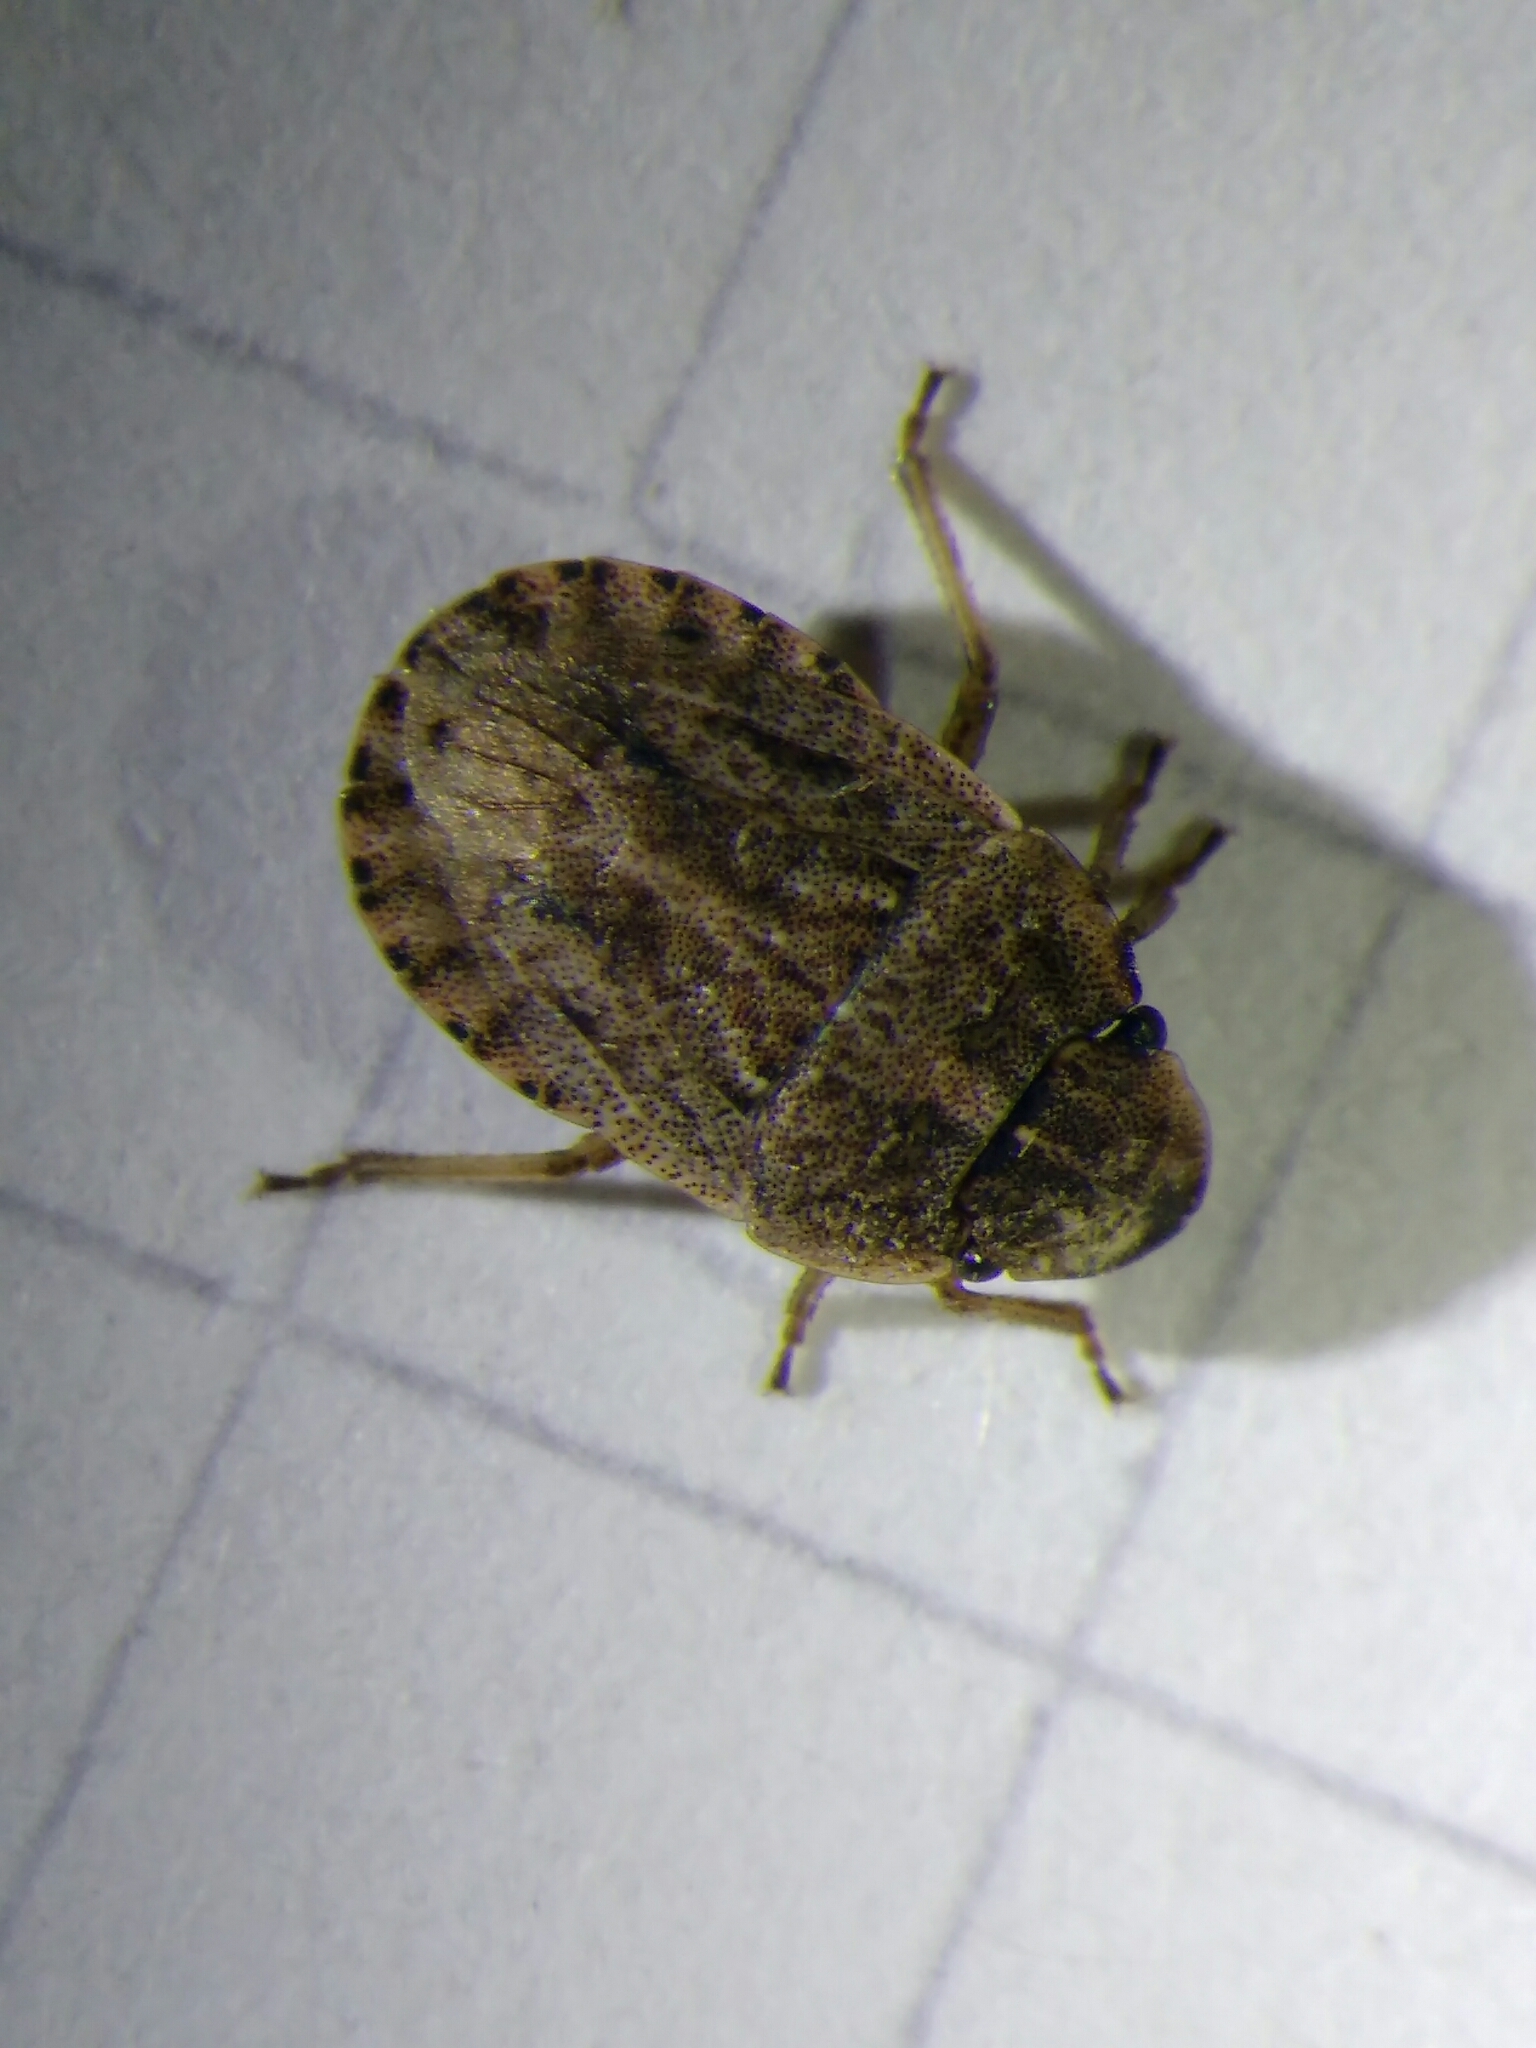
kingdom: Animalia
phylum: Arthropoda
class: Insecta
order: Hemiptera
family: Pentatomidae
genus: Sciocoris
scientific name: Sciocoris cursitans
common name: Sandrunner
